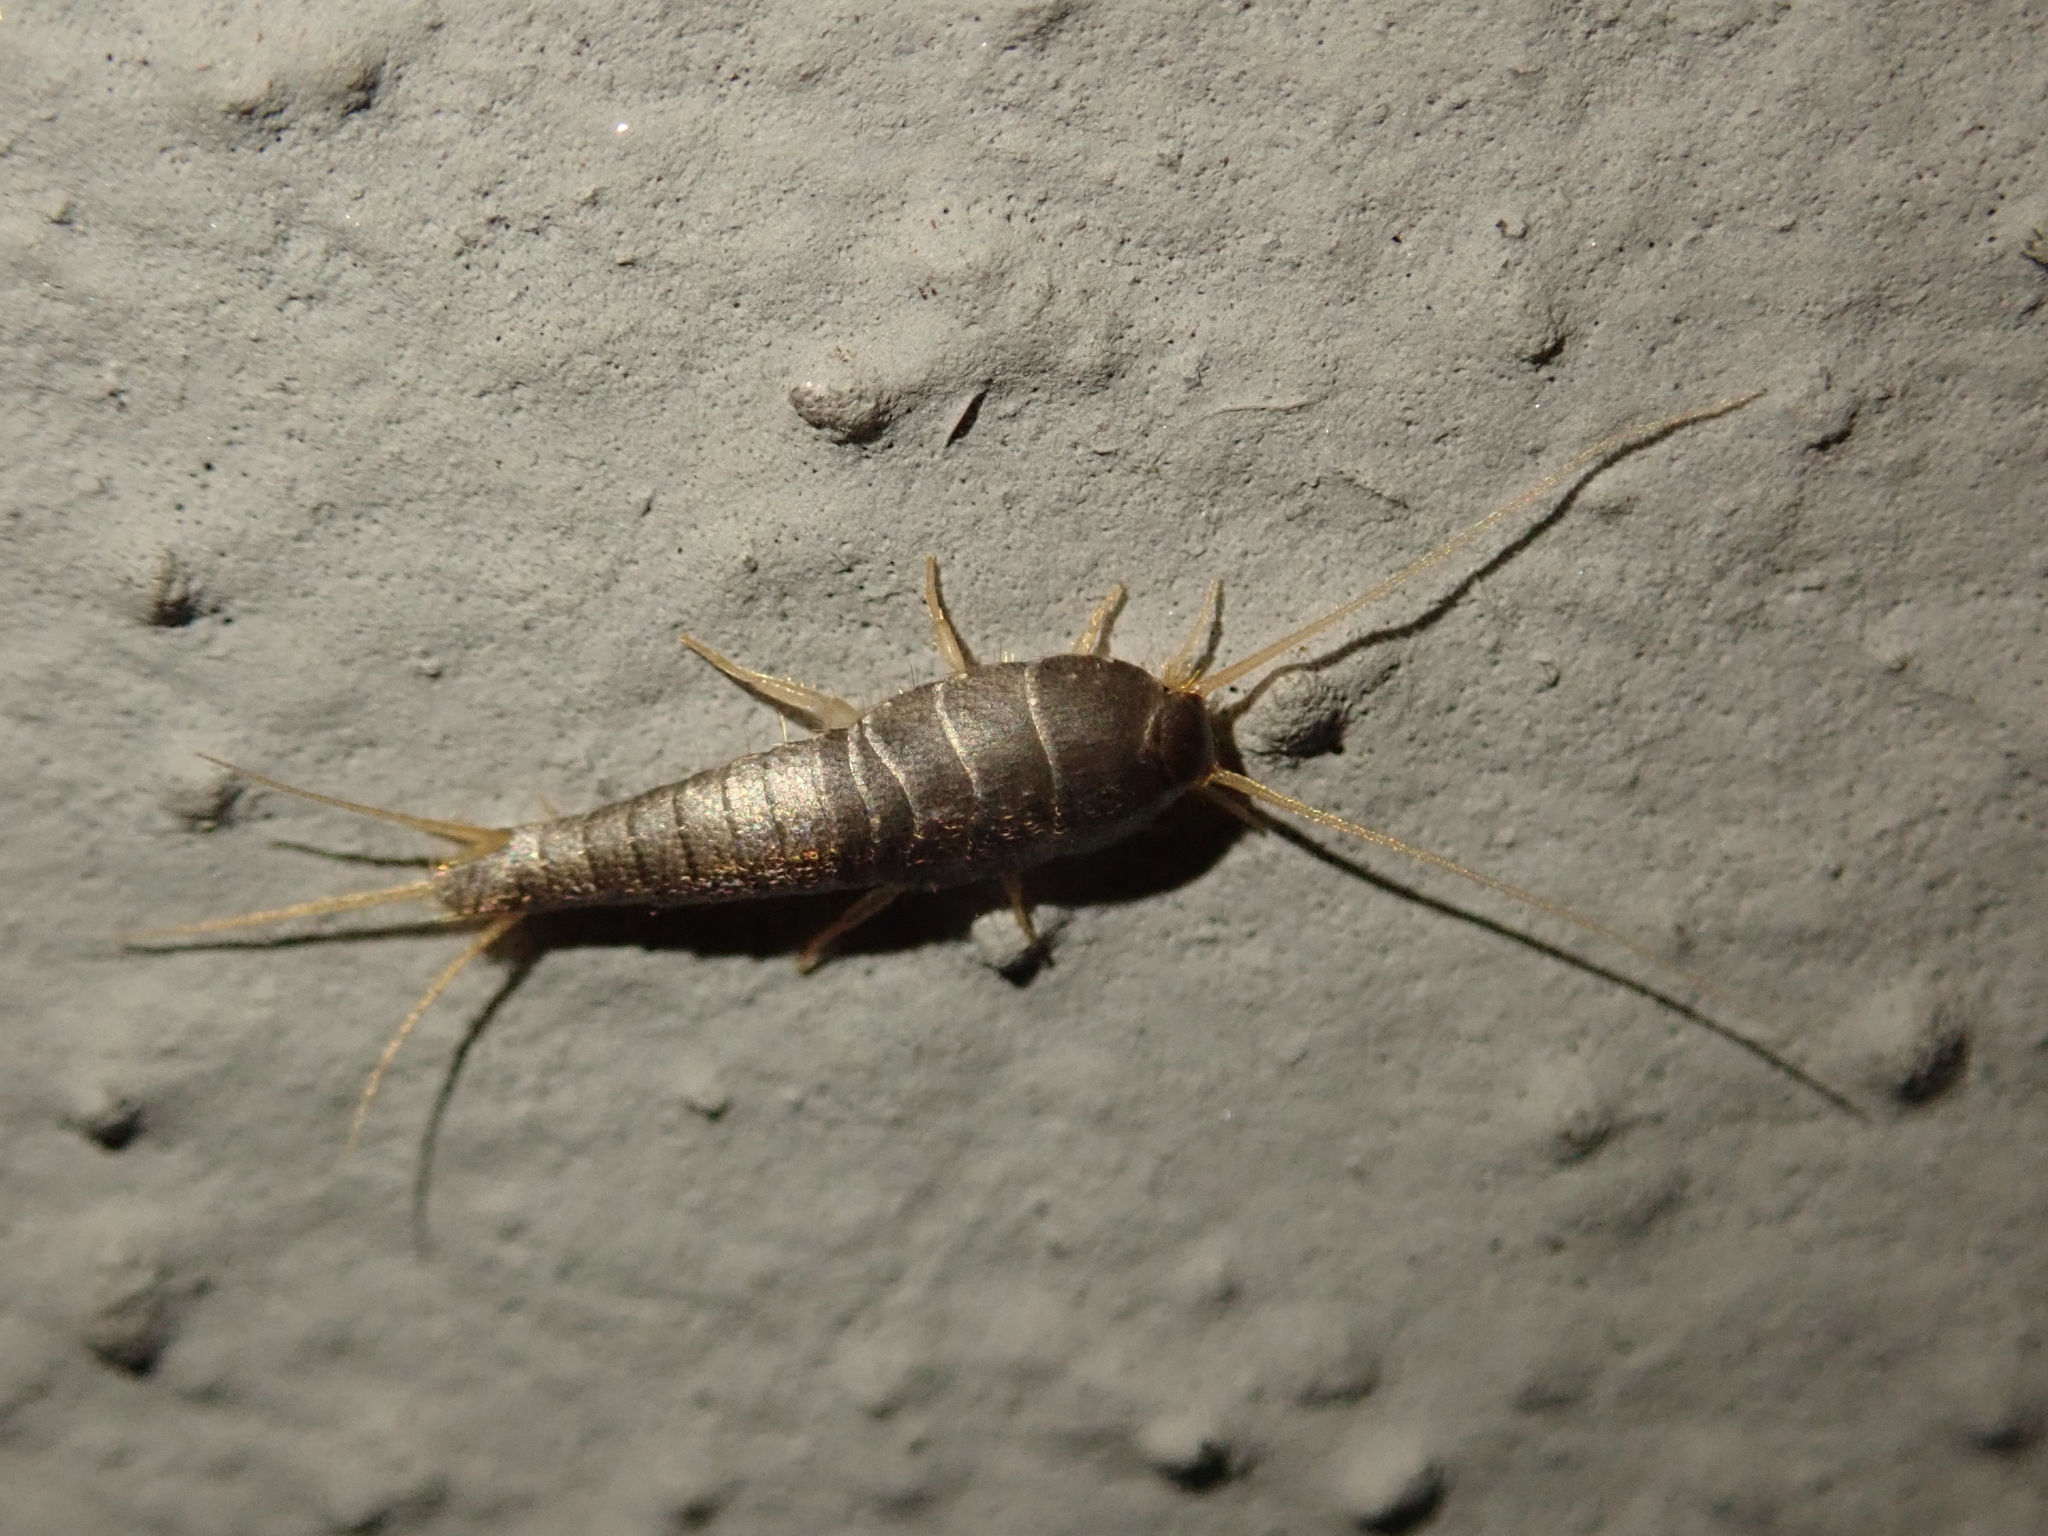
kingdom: Animalia
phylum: Arthropoda
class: Insecta
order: Zygentoma
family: Lepismatidae
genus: Lepisma
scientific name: Lepisma saccharinum
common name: Silverfish
